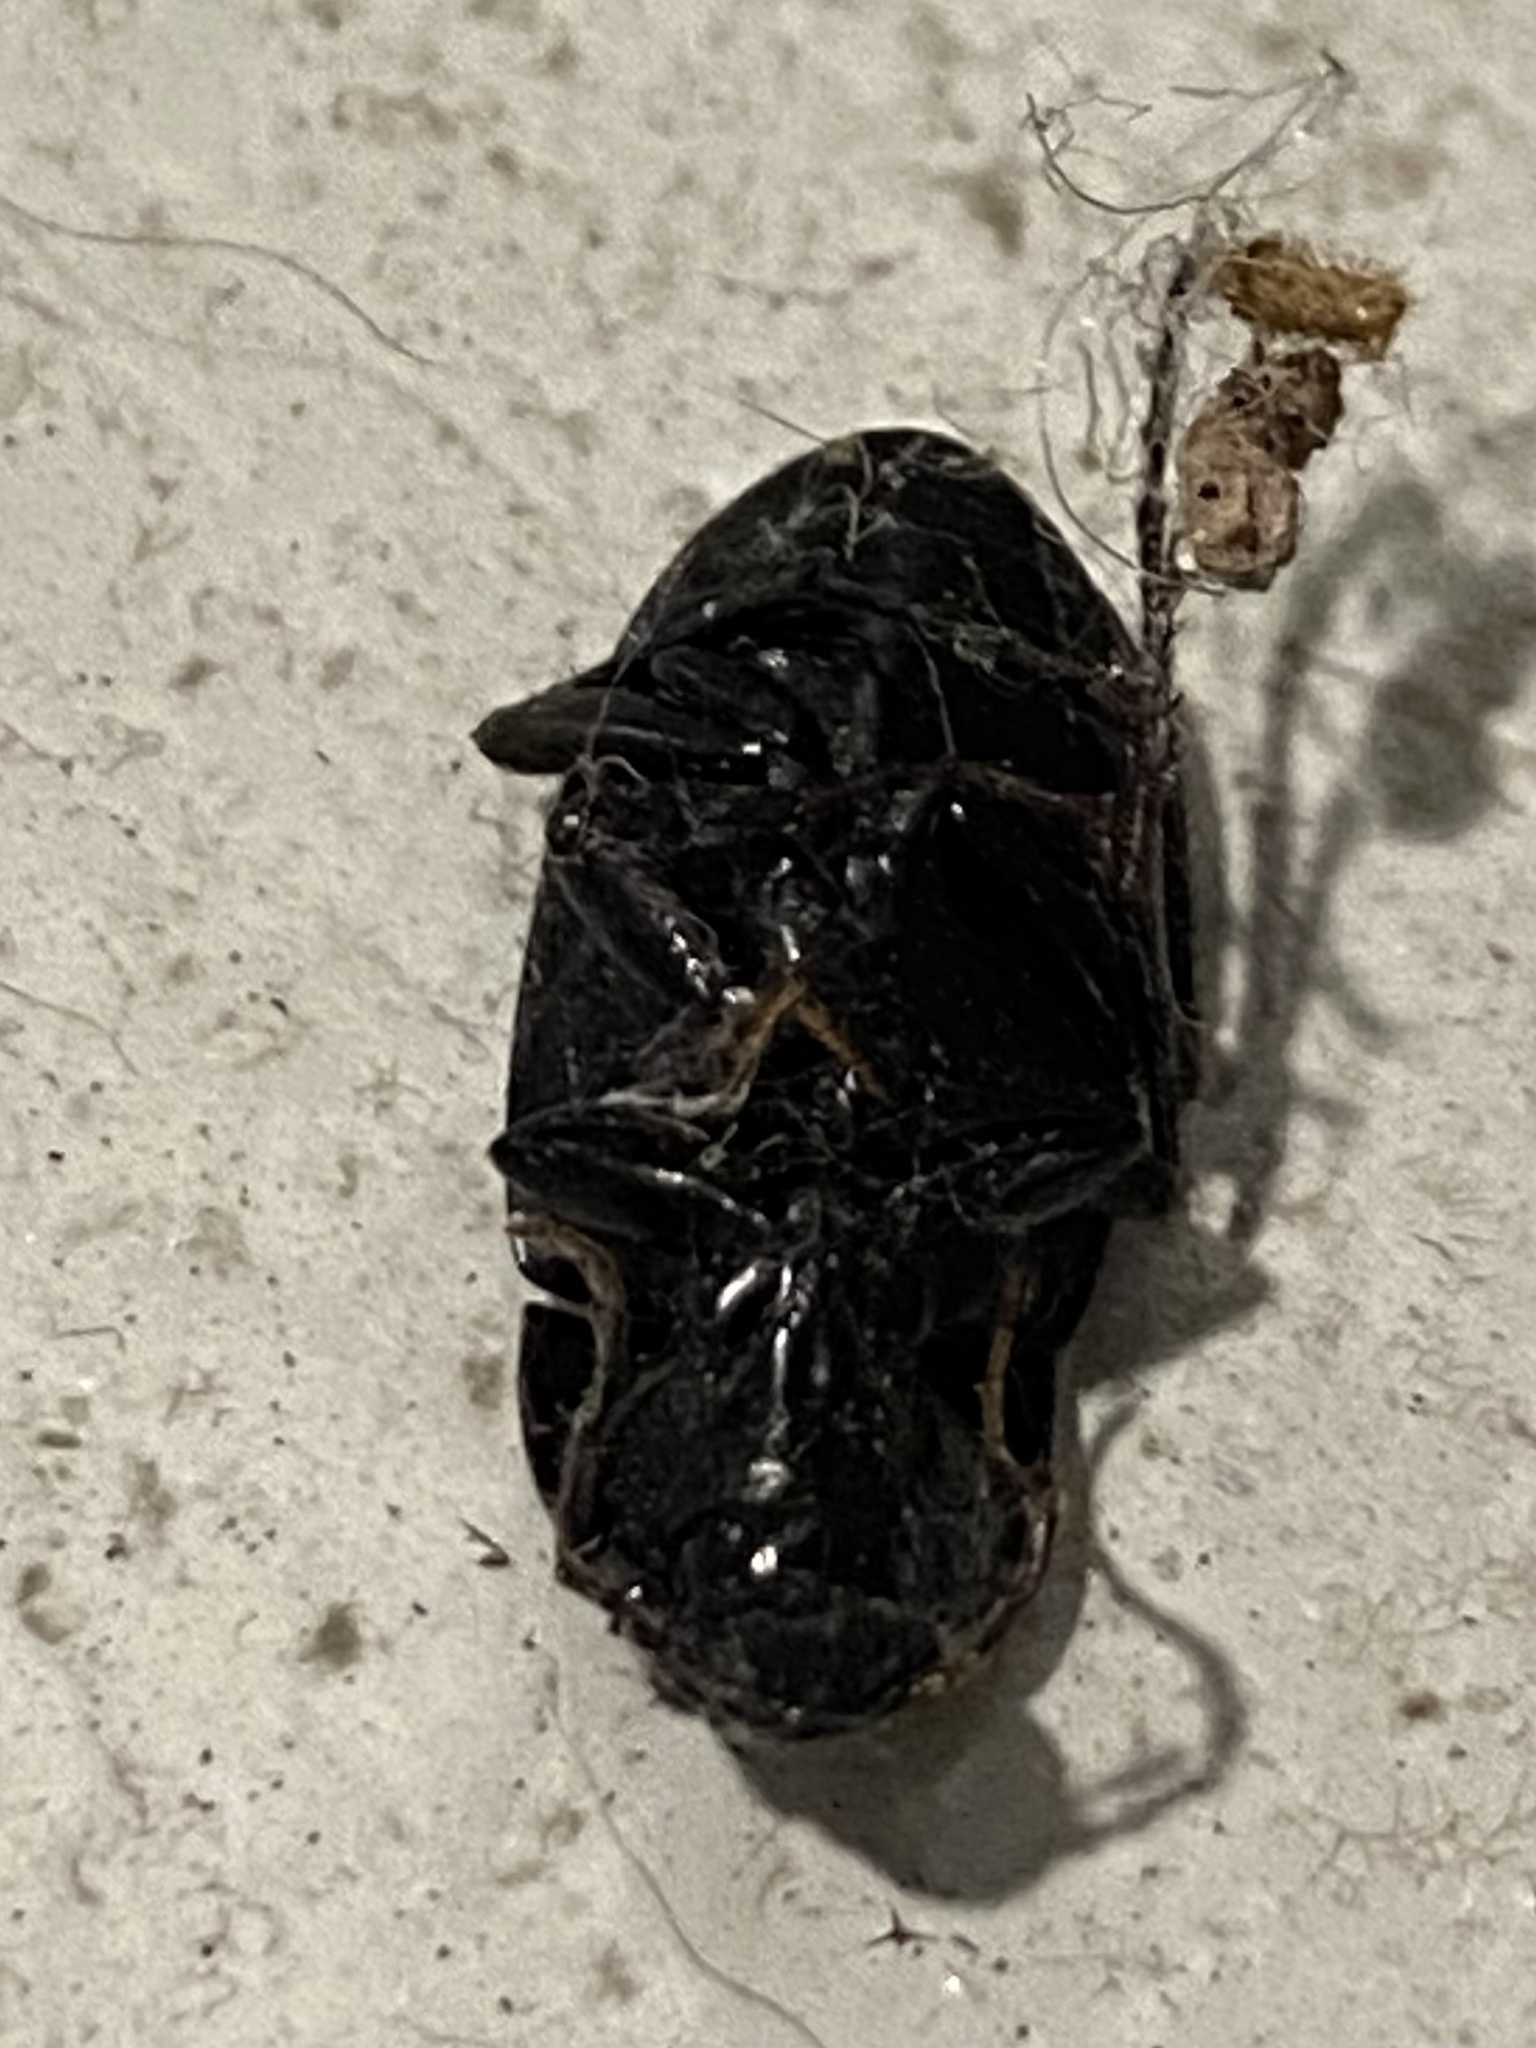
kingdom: Animalia
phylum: Arthropoda
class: Insecta
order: Coleoptera
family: Carabidae
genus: Chlaenius
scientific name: Chlaenius tomentosus
